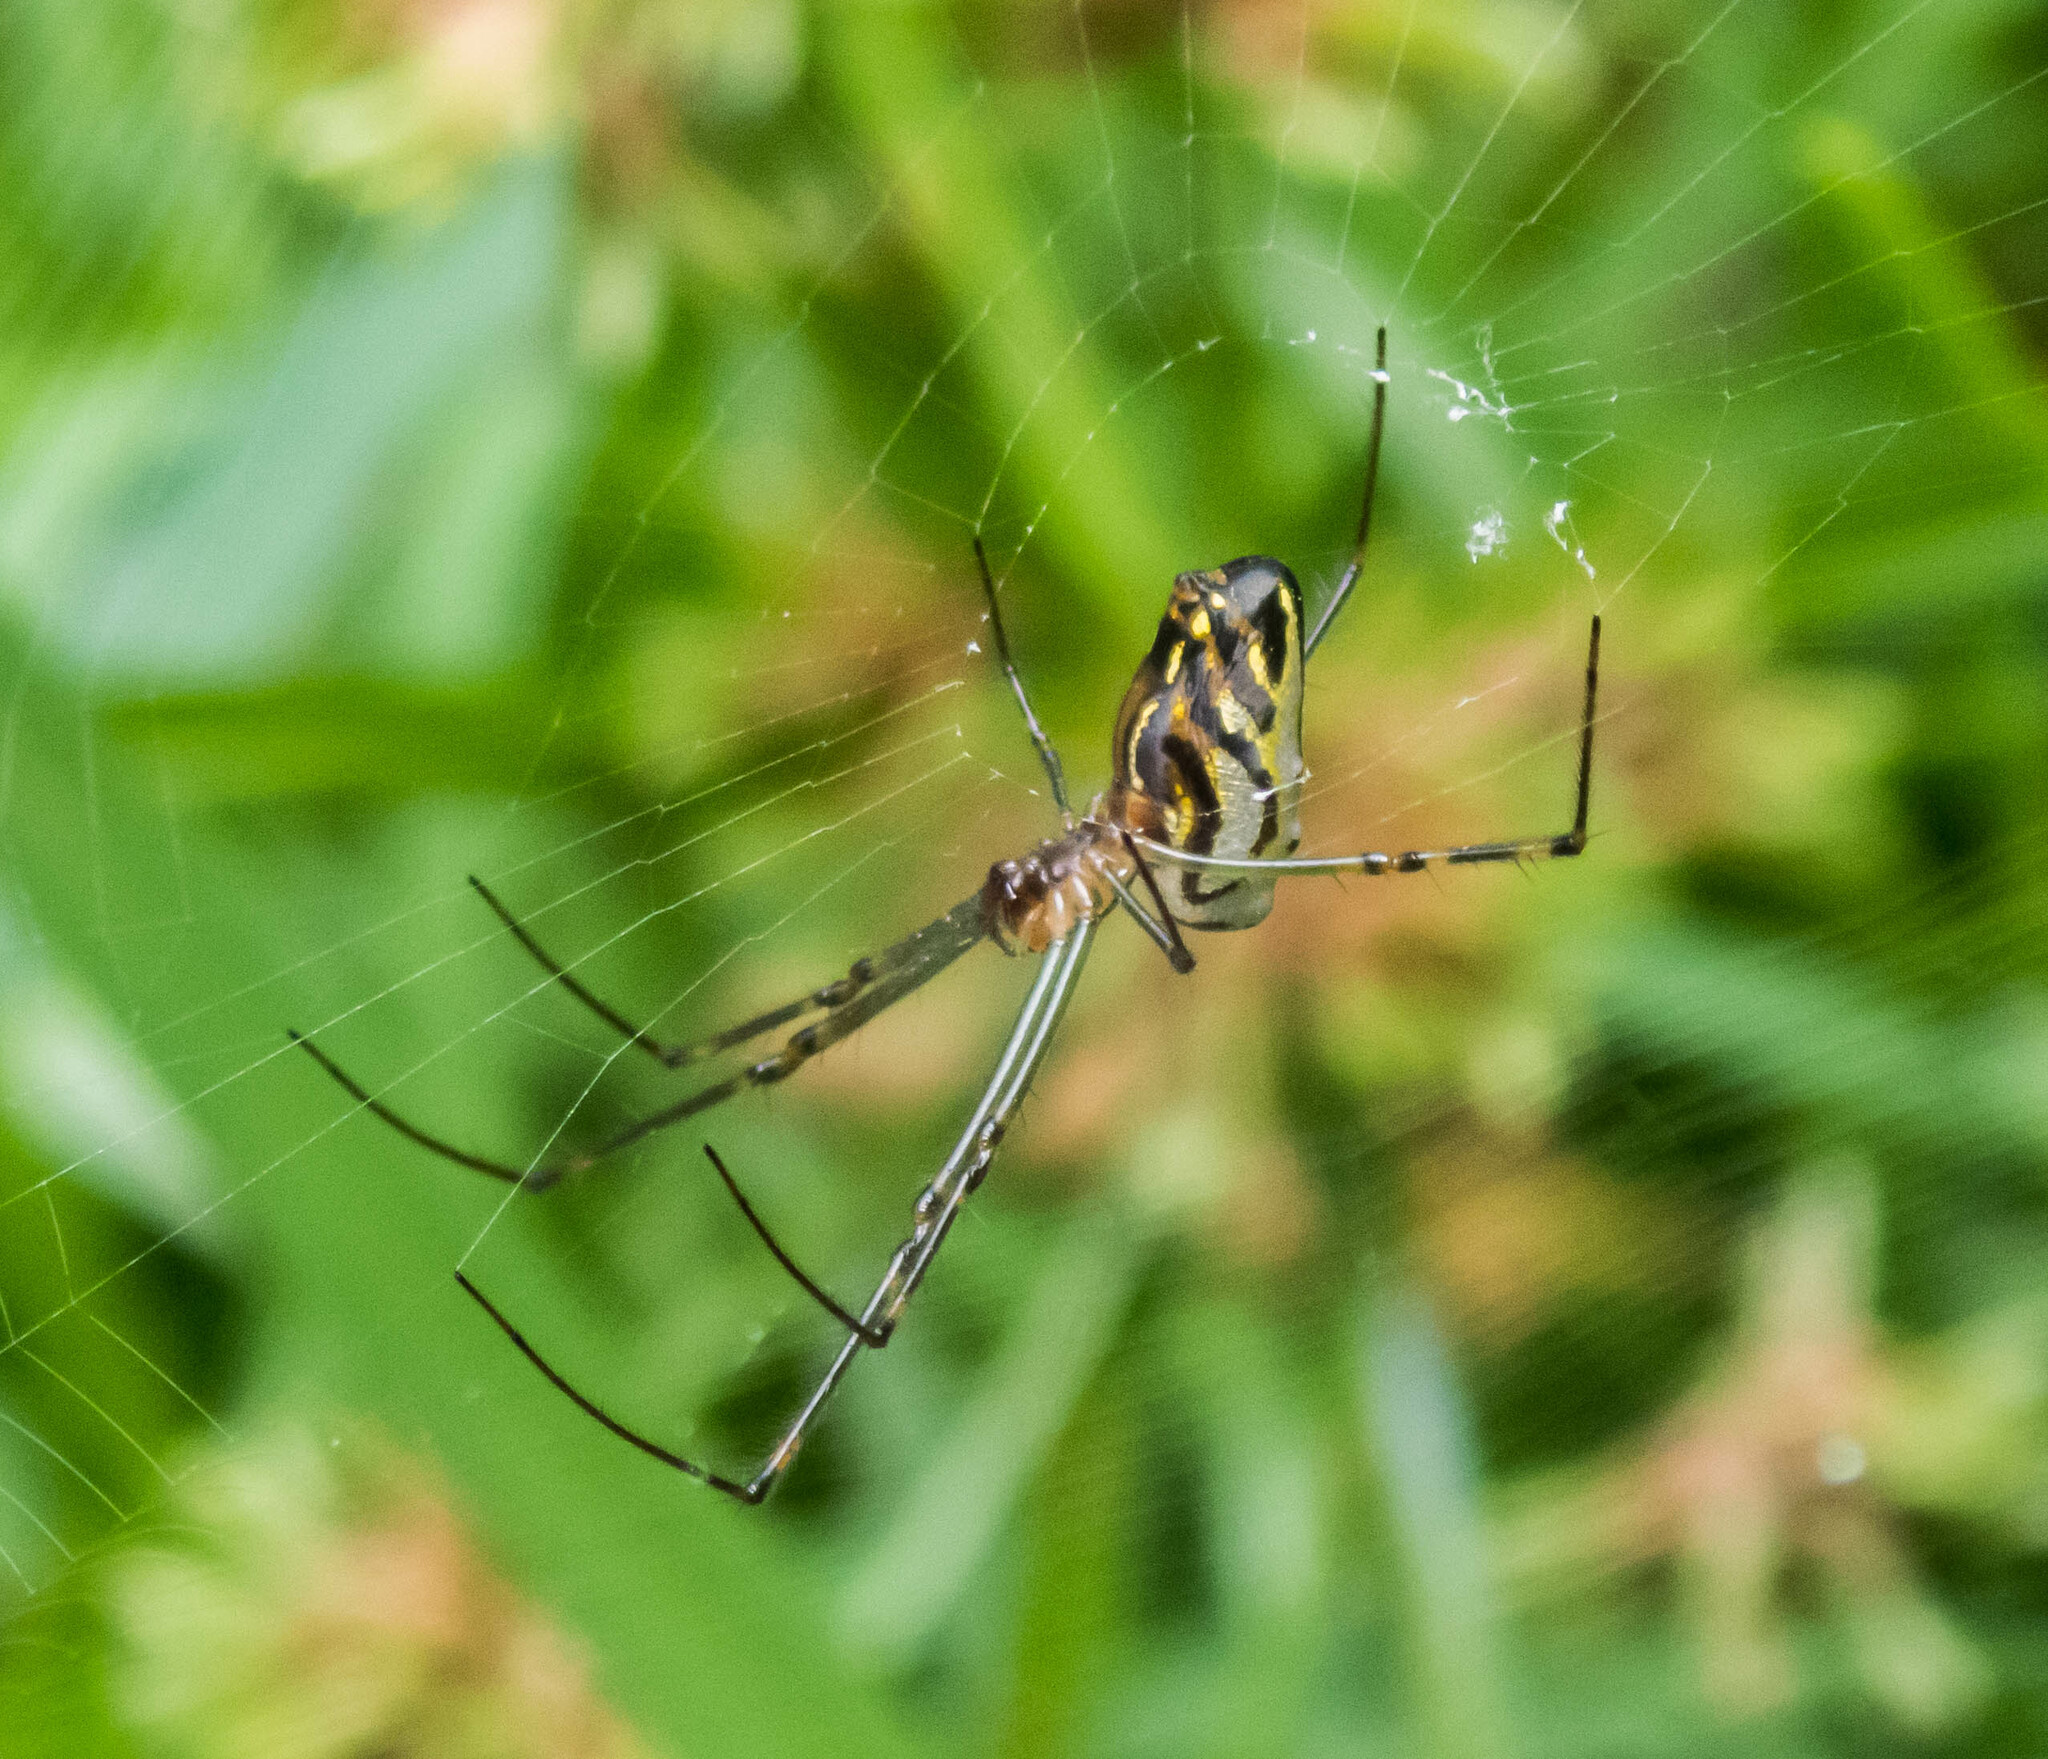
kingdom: Animalia
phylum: Arthropoda
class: Arachnida
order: Araneae
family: Tetragnathidae
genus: Leucauge
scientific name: Leucauge dromedaria
